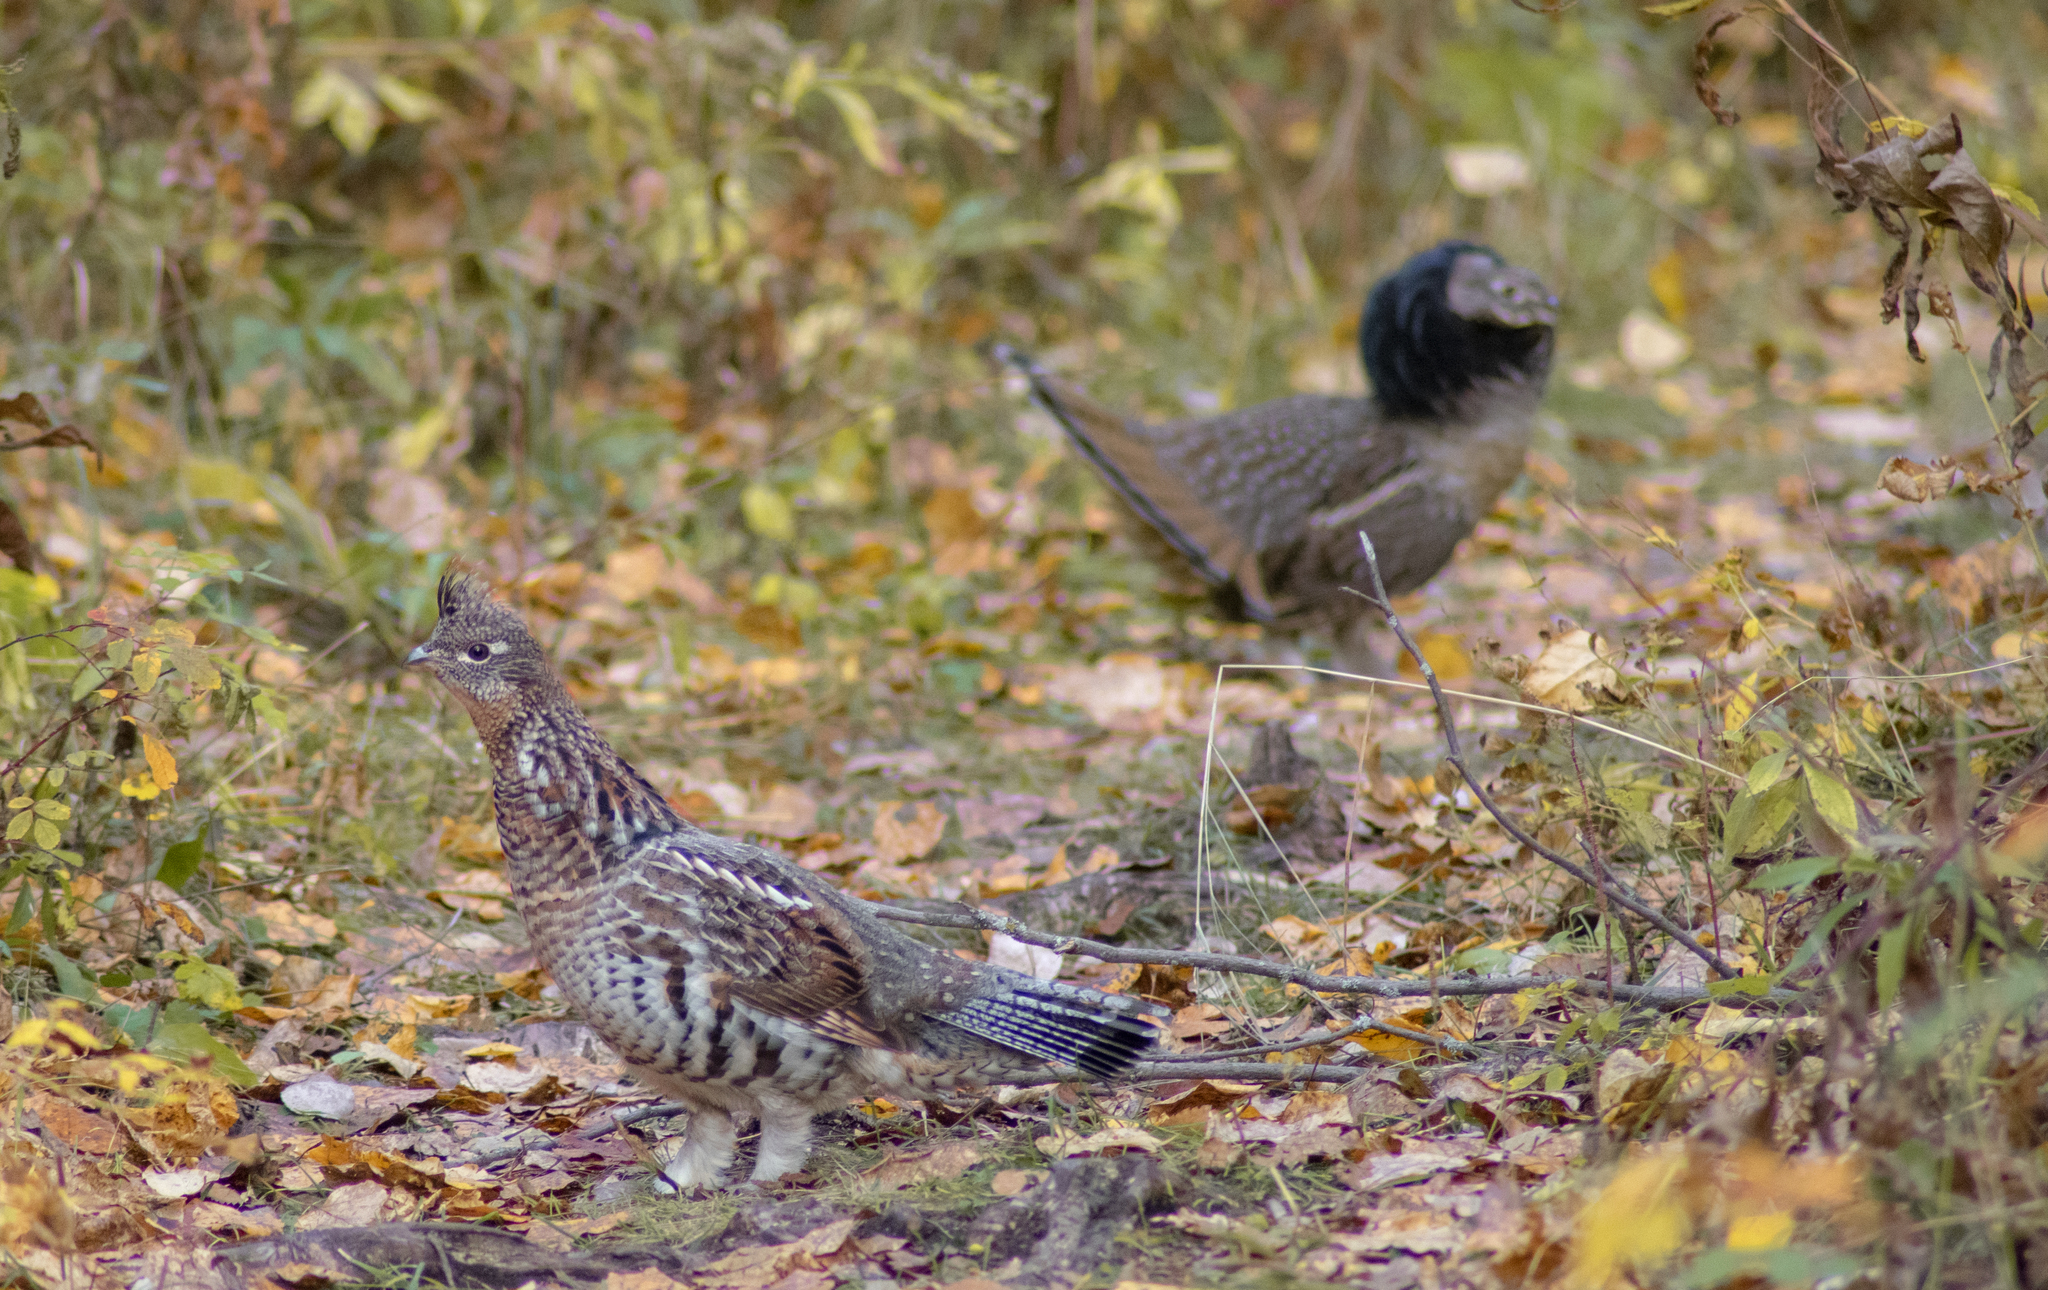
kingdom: Animalia
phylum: Chordata
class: Aves
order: Galliformes
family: Phasianidae
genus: Bonasa
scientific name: Bonasa umbellus
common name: Ruffed grouse
